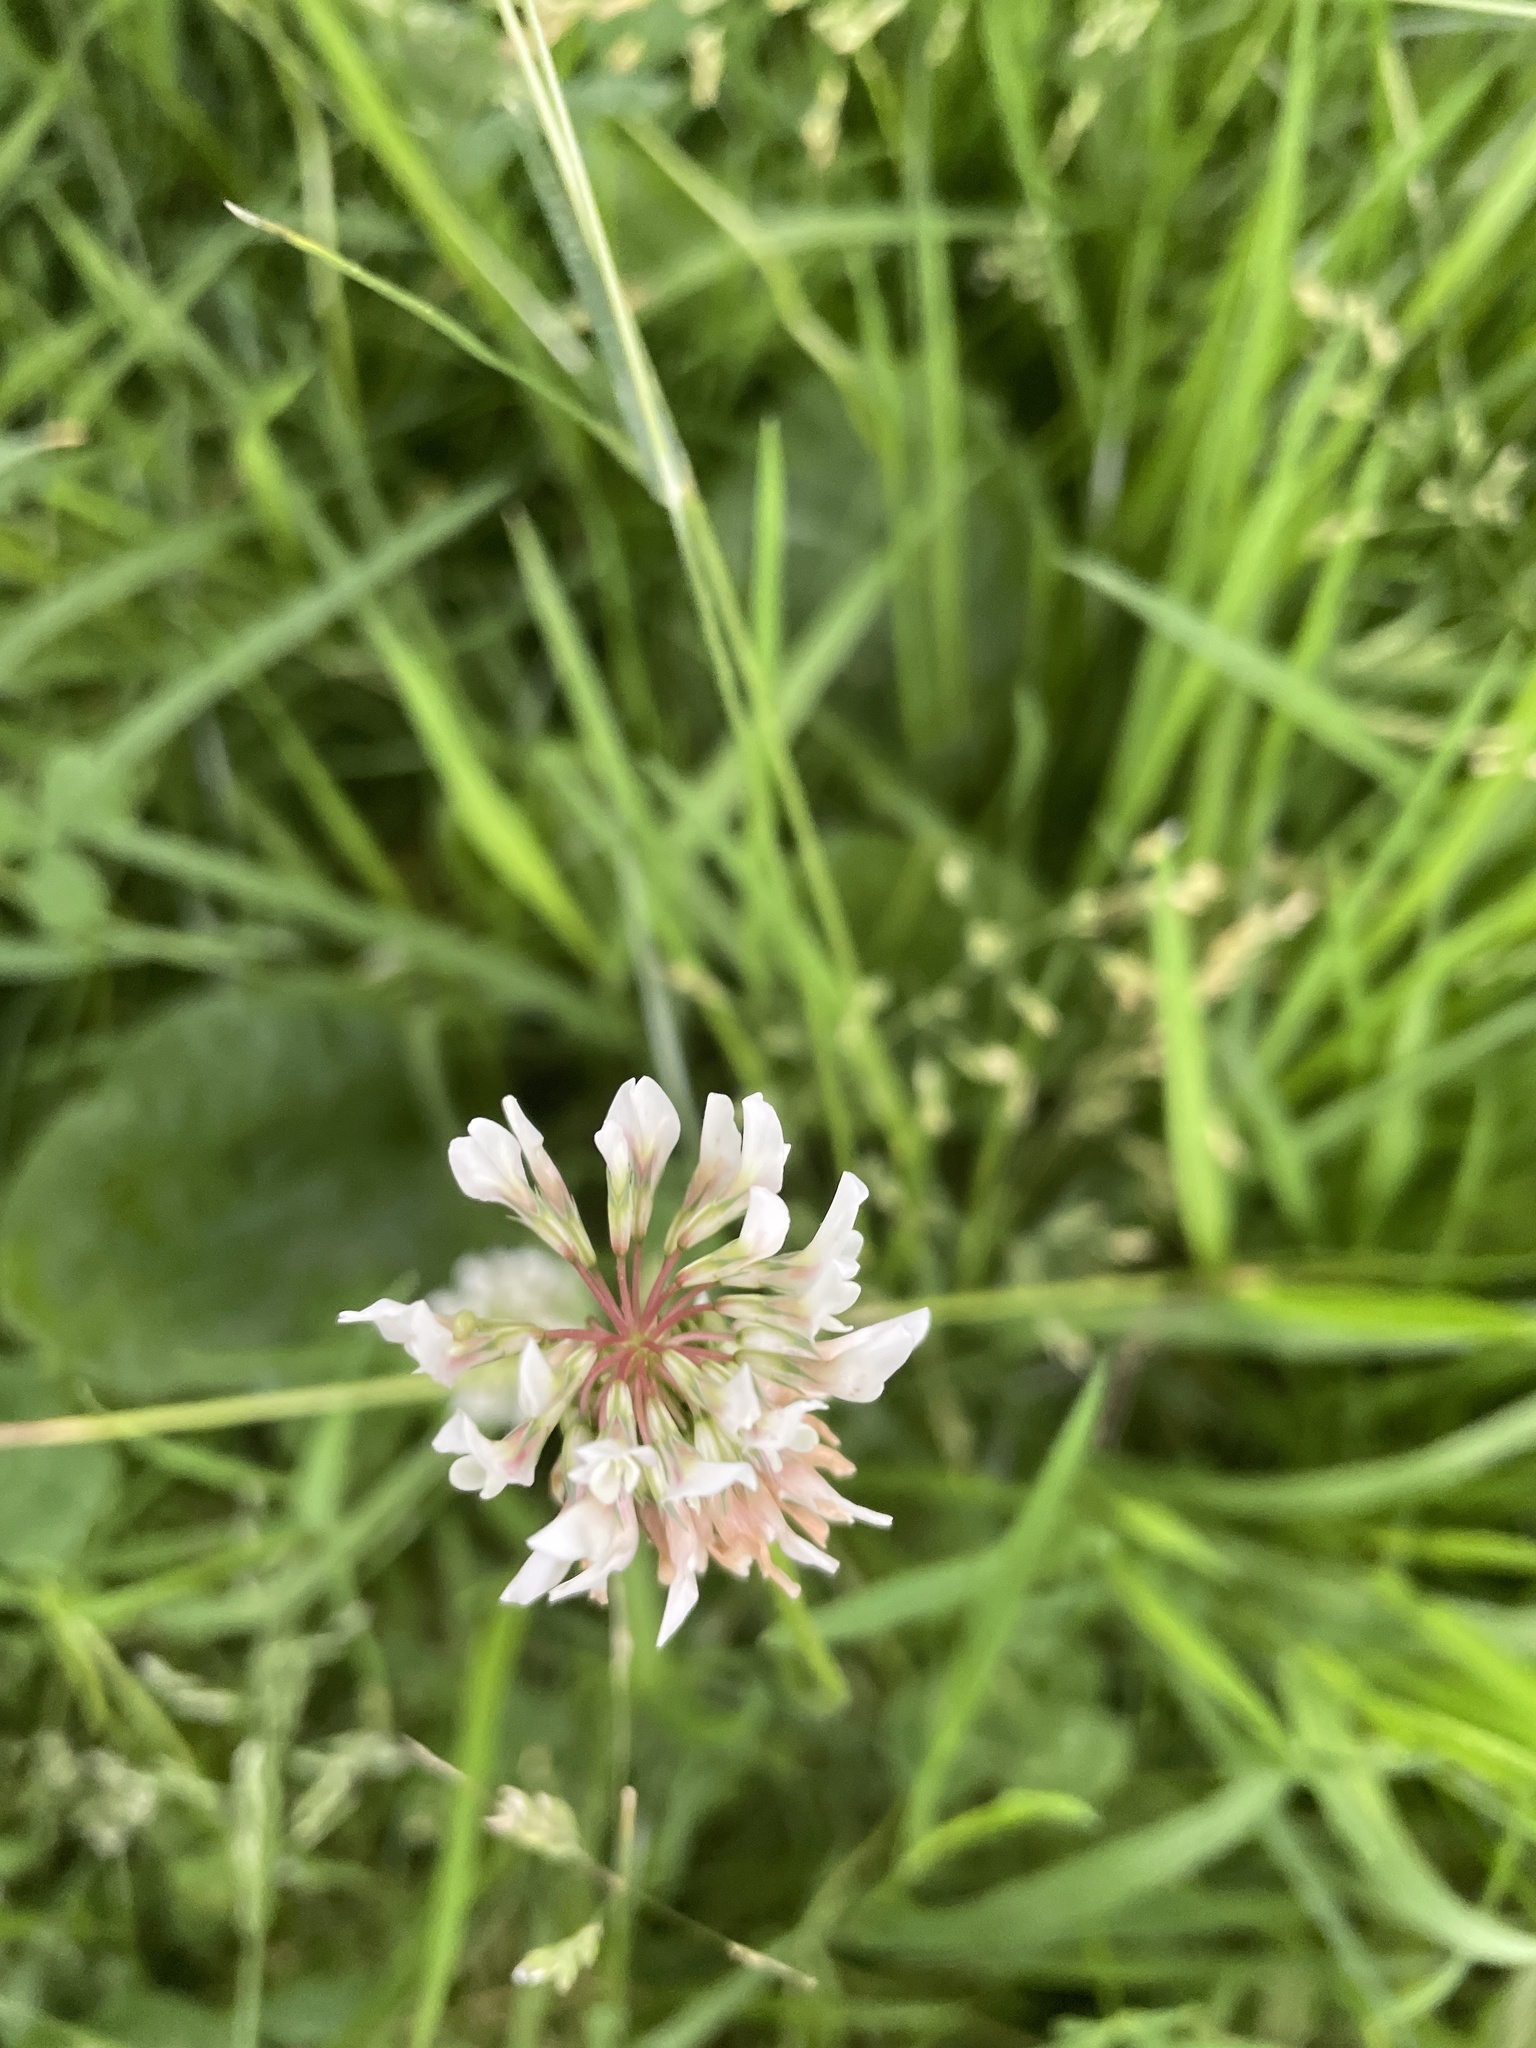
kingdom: Plantae
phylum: Tracheophyta
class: Magnoliopsida
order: Fabales
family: Fabaceae
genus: Trifolium
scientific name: Trifolium repens
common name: White clover
